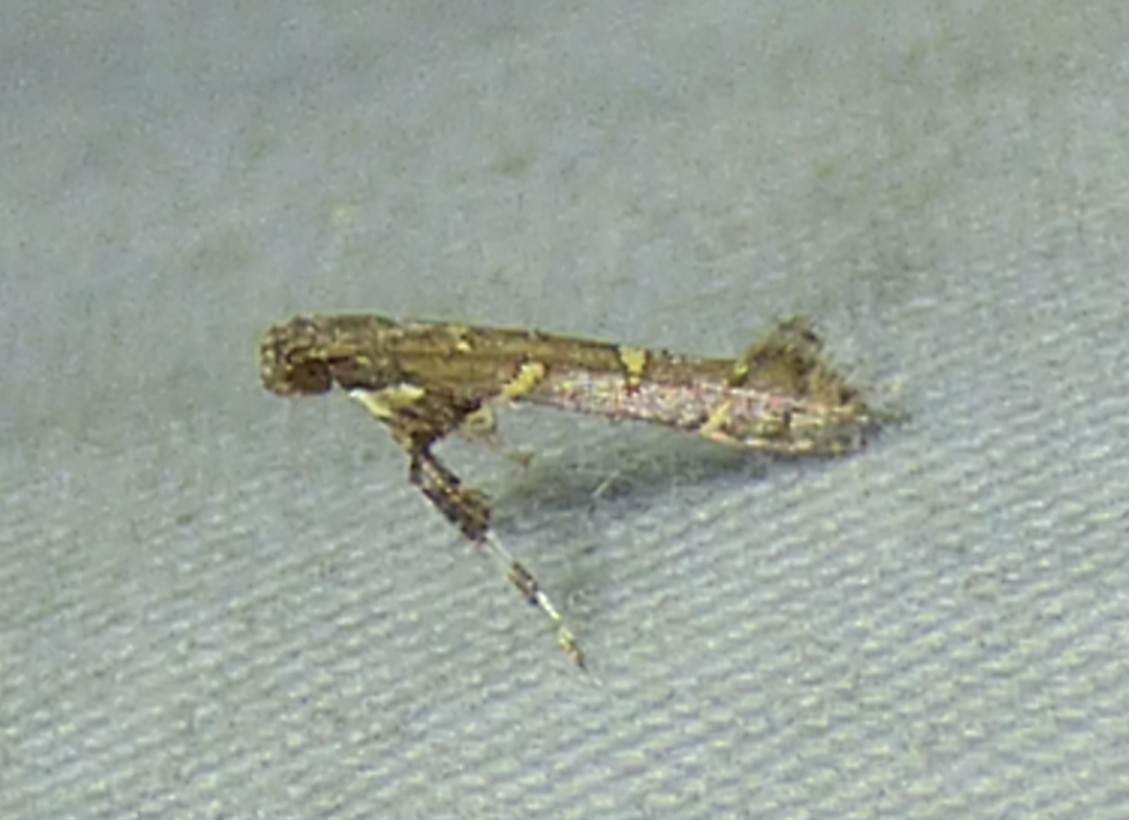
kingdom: Animalia
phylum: Arthropoda
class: Insecta
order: Lepidoptera
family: Gracillariidae
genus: Caloptilia
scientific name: Caloptilia triadicae
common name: Tallow leaf roller
